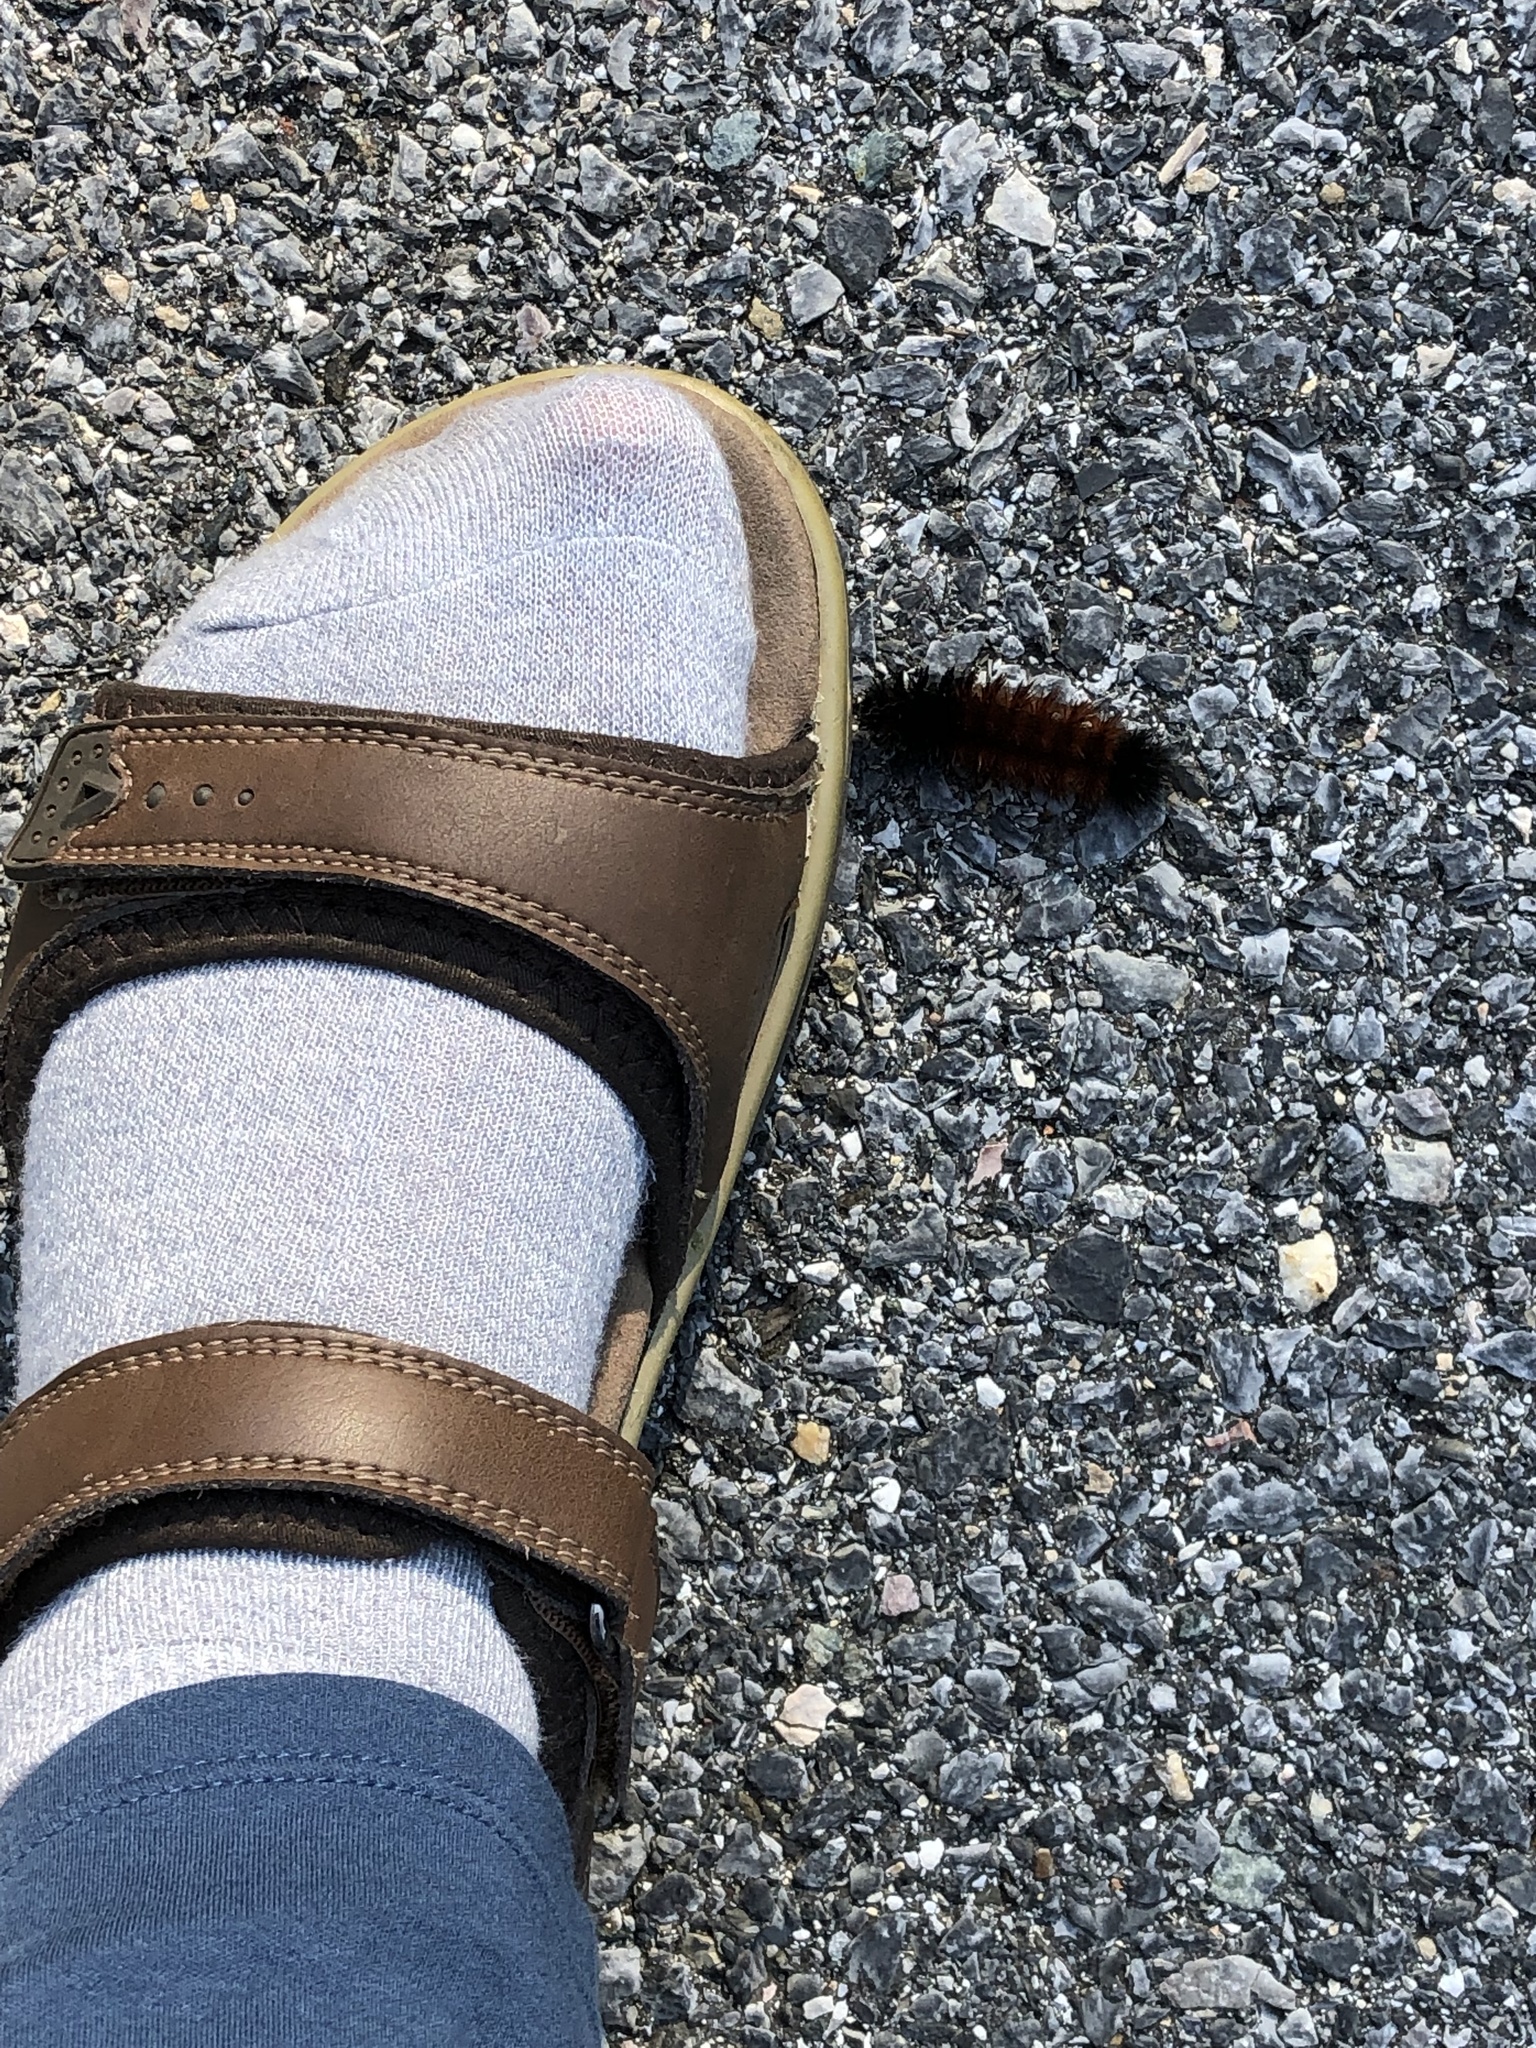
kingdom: Animalia
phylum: Arthropoda
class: Insecta
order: Lepidoptera
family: Erebidae
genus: Pyrrharctia
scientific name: Pyrrharctia isabella
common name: Isabella tiger moth
